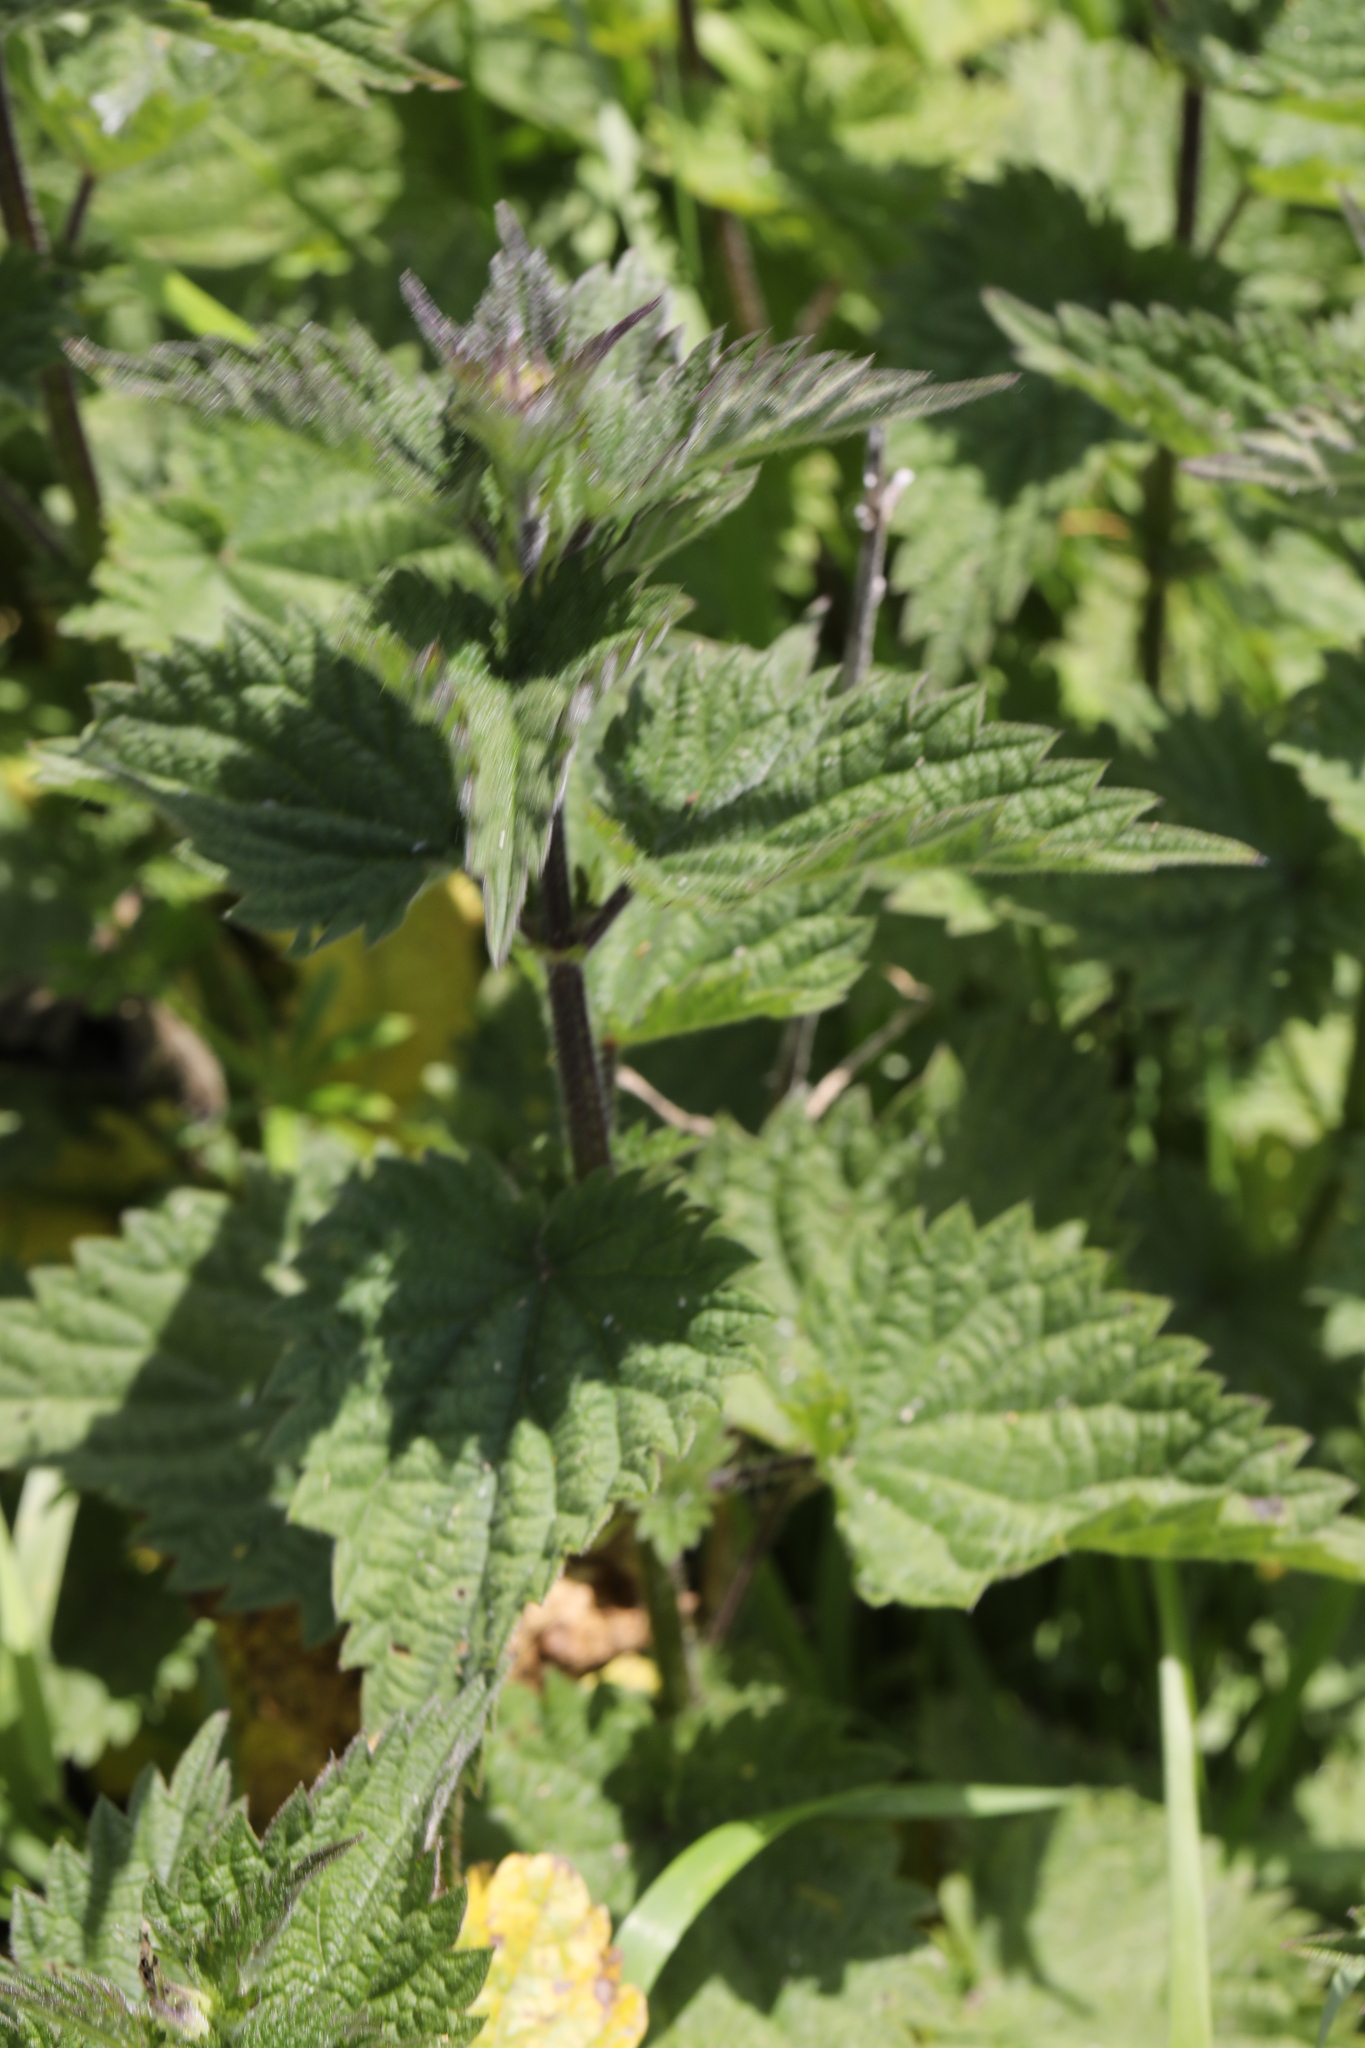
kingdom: Plantae
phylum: Tracheophyta
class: Magnoliopsida
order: Rosales
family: Urticaceae
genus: Urtica
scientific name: Urtica dioica
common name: Common nettle
